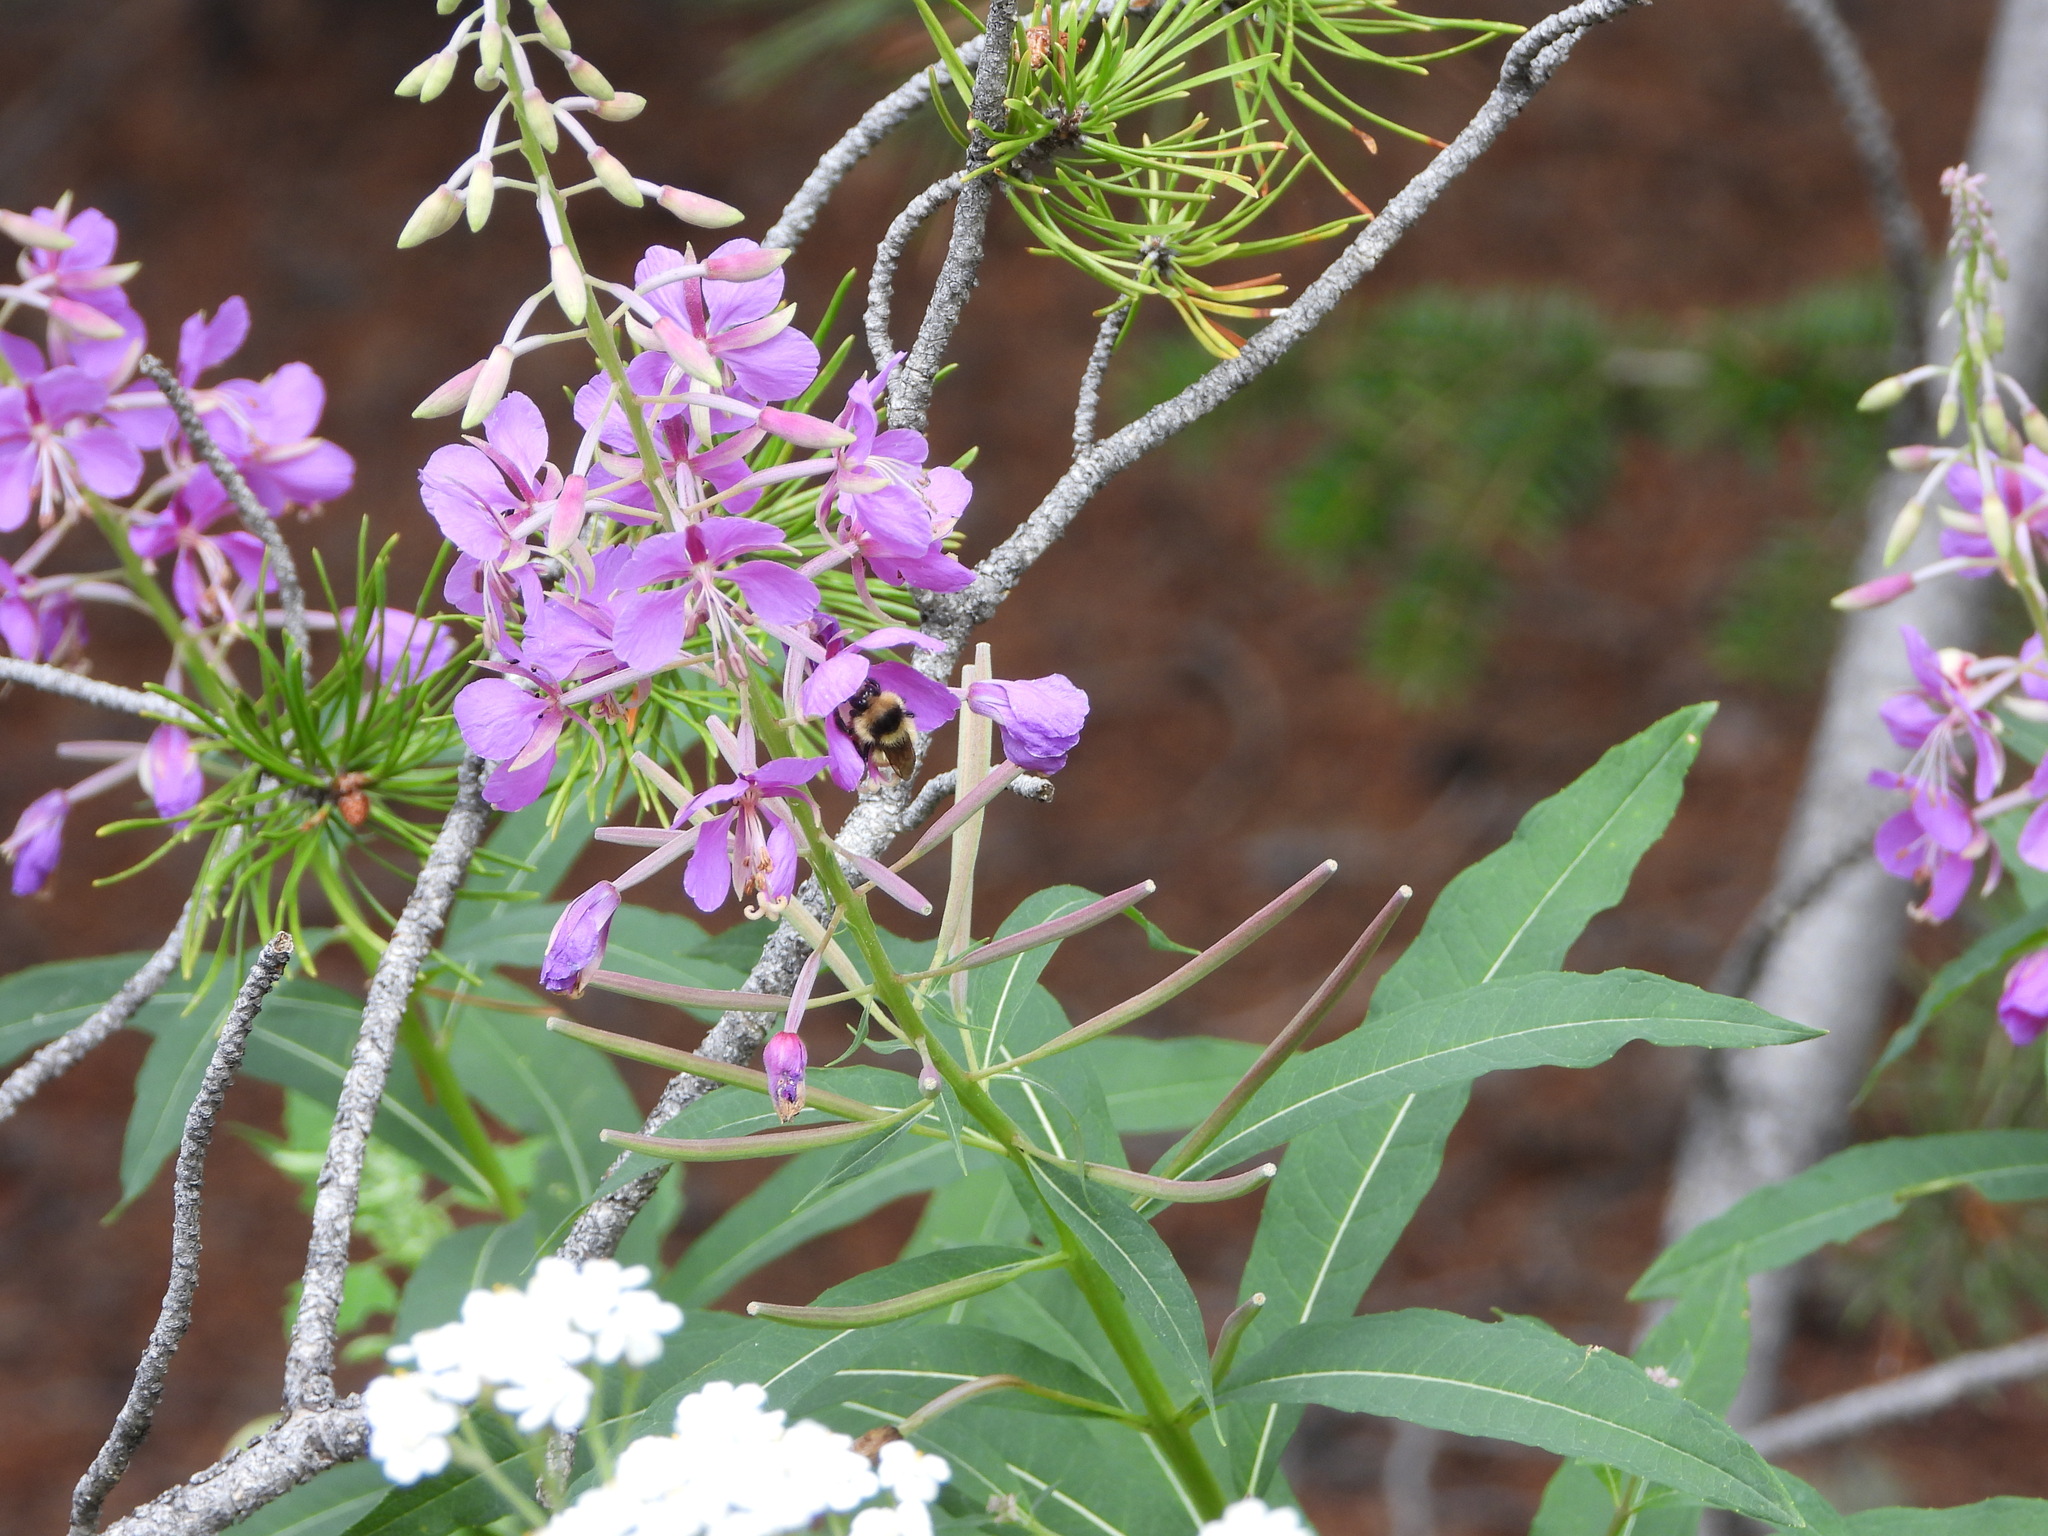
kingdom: Plantae
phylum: Tracheophyta
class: Magnoliopsida
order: Myrtales
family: Onagraceae
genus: Chamaenerion
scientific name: Chamaenerion angustifolium
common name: Fireweed
